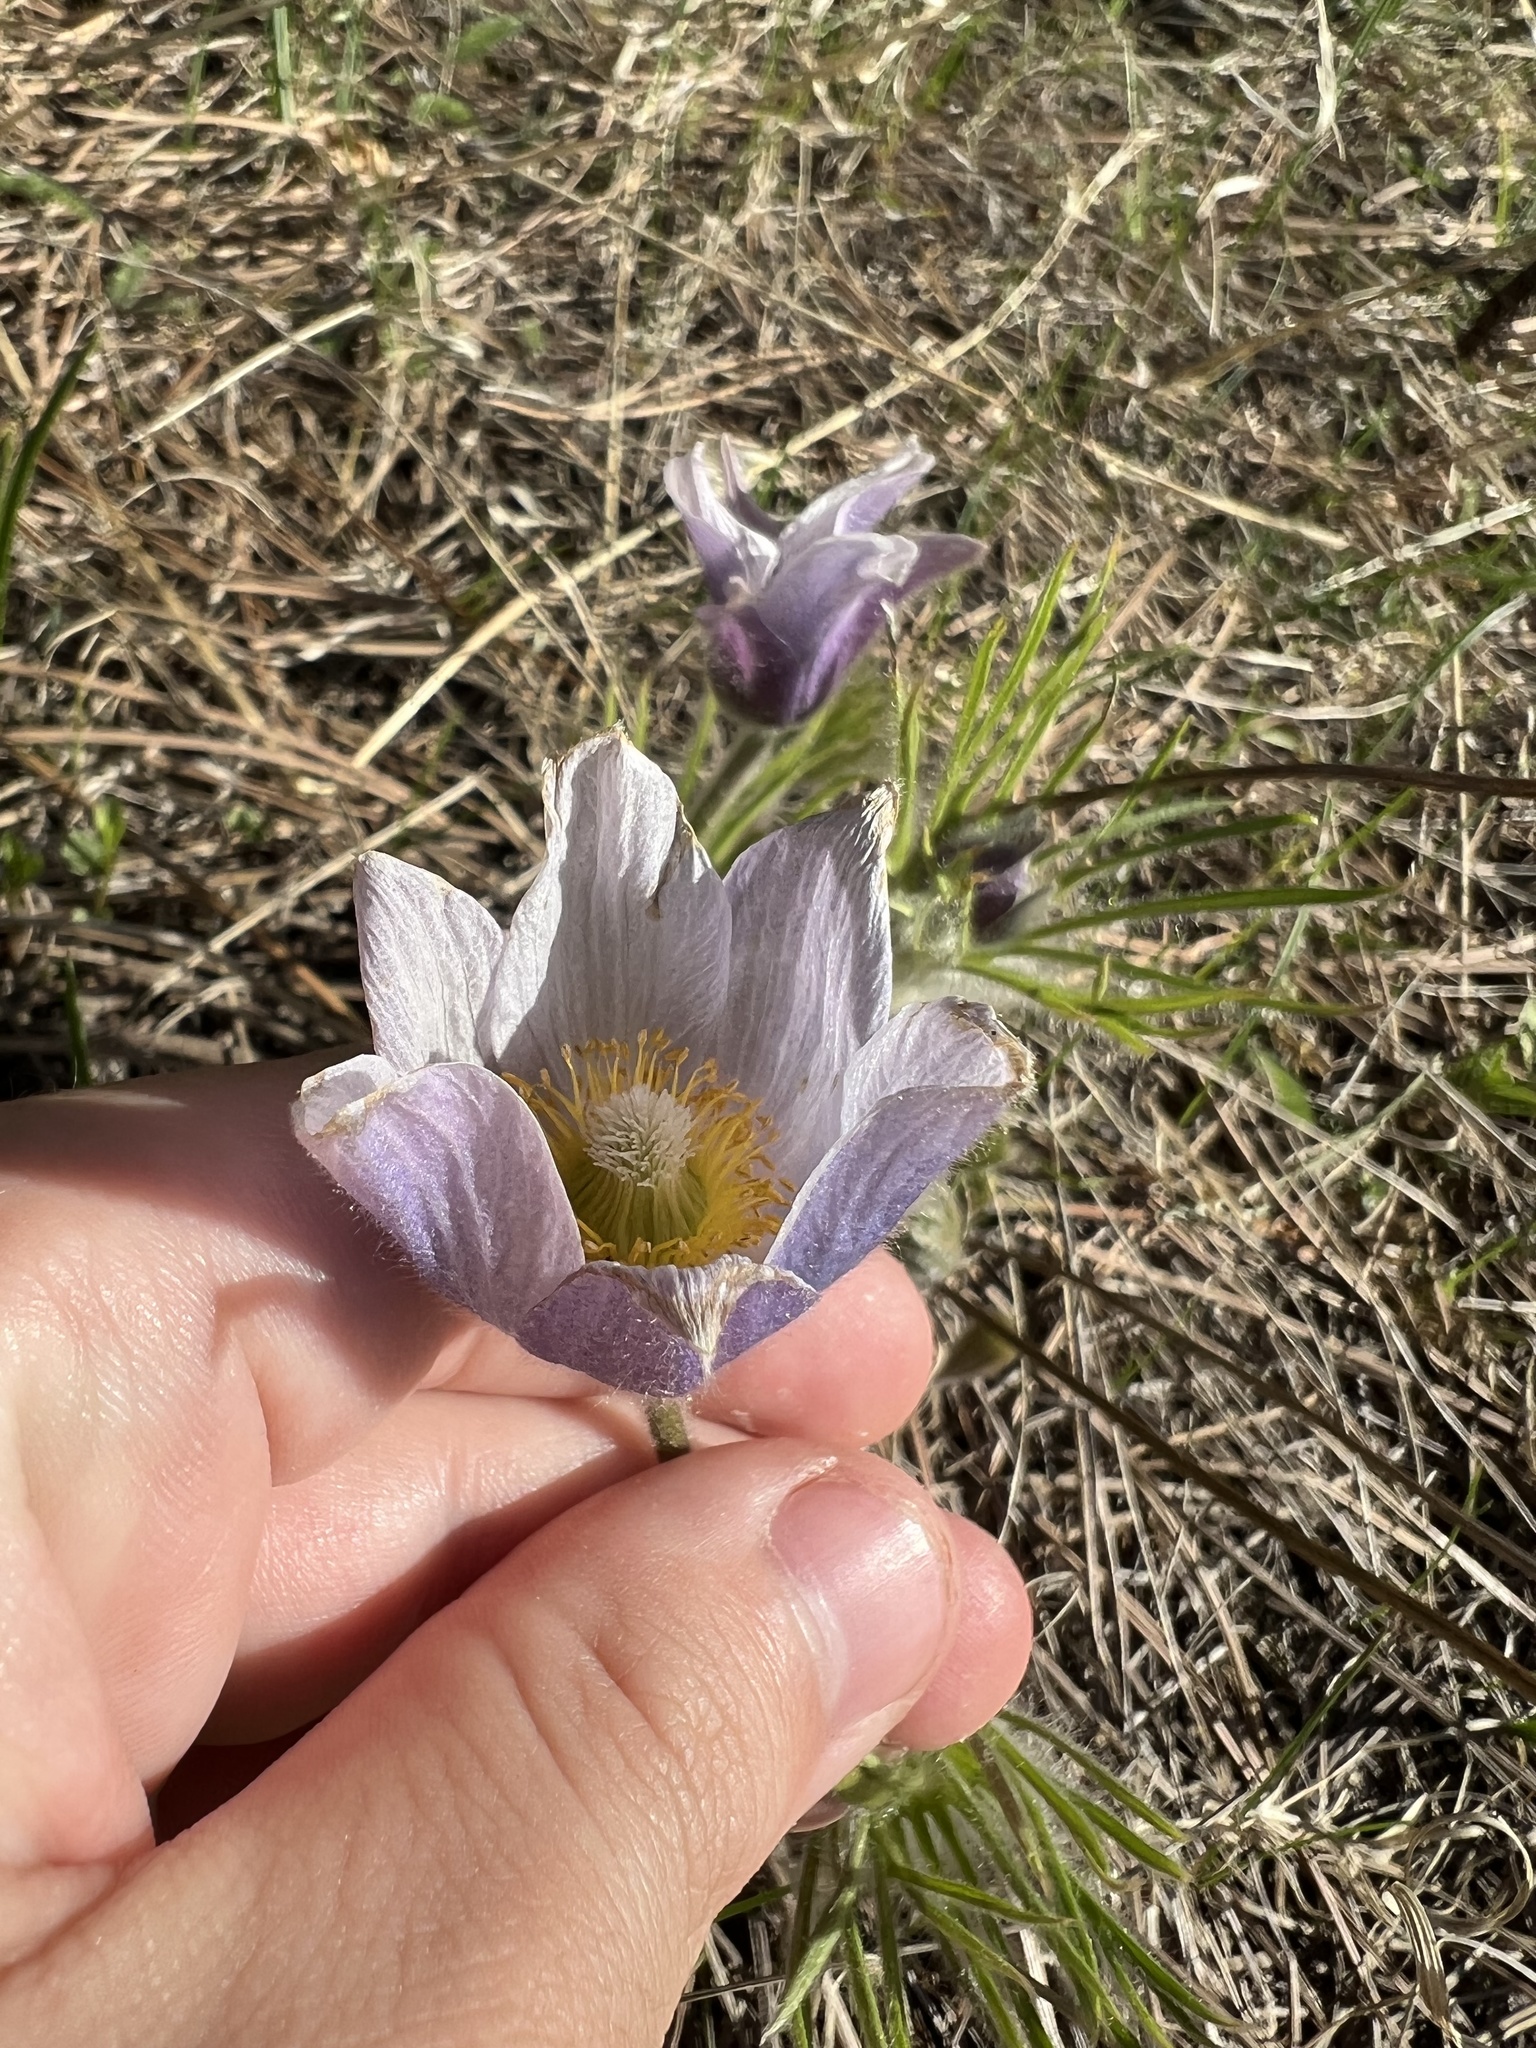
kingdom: Plantae
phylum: Tracheophyta
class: Magnoliopsida
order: Ranunculales
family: Ranunculaceae
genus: Pulsatilla
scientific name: Pulsatilla nuttalliana
